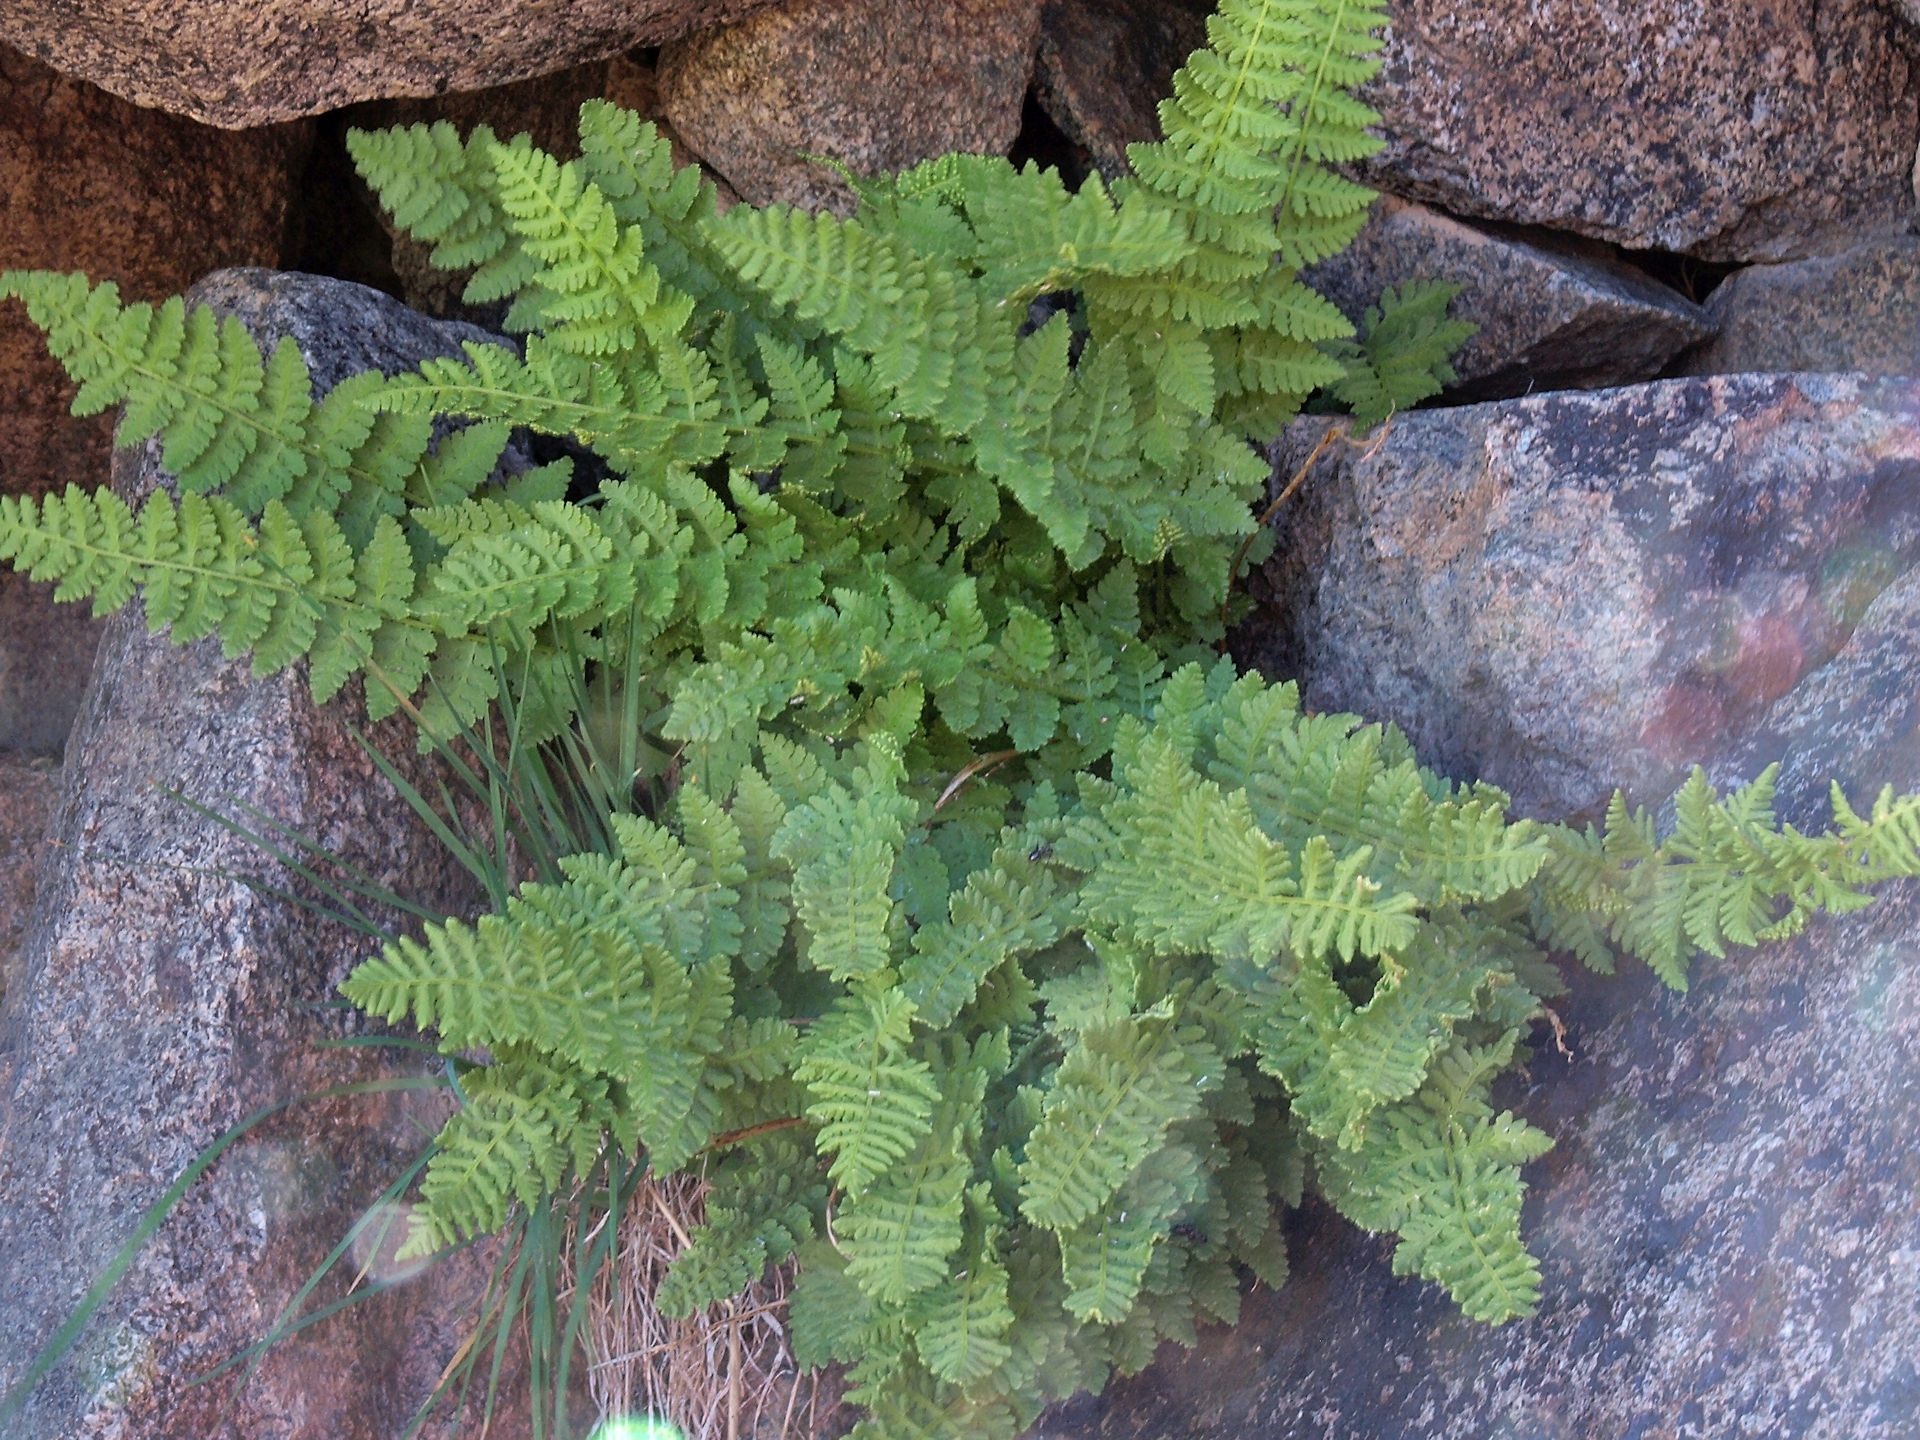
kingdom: Plantae
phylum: Tracheophyta
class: Polypodiopsida
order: Polypodiales
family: Woodsiaceae
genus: Physematium
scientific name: Physematium scopulinum
